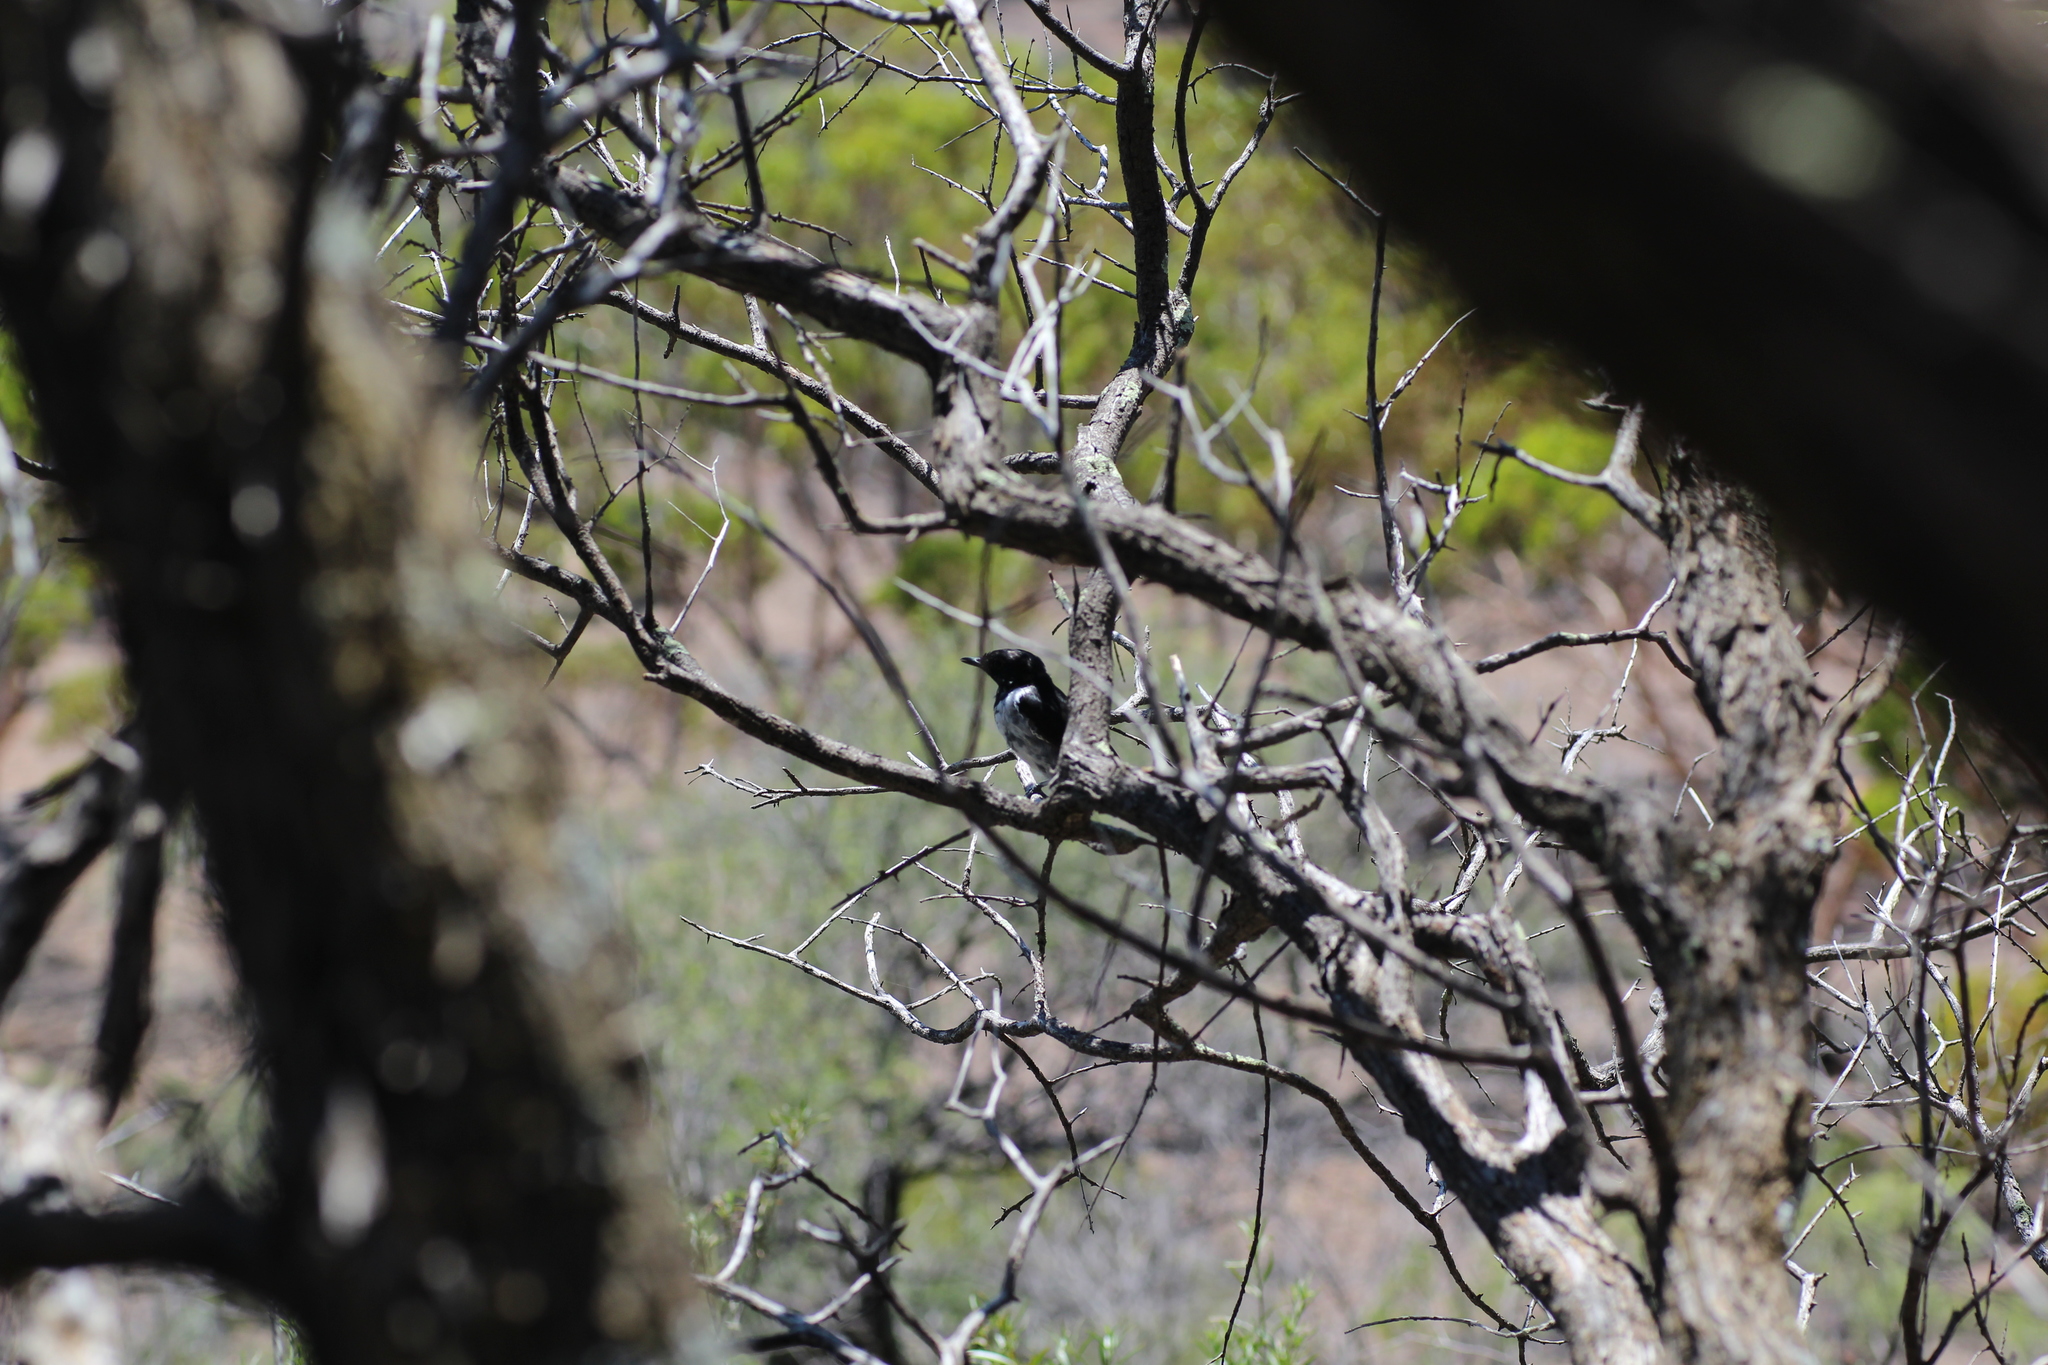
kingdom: Animalia
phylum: Chordata
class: Aves
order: Passeriformes
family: Petroicidae
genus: Melanodryas
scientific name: Melanodryas cucullata
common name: Hooded robin
